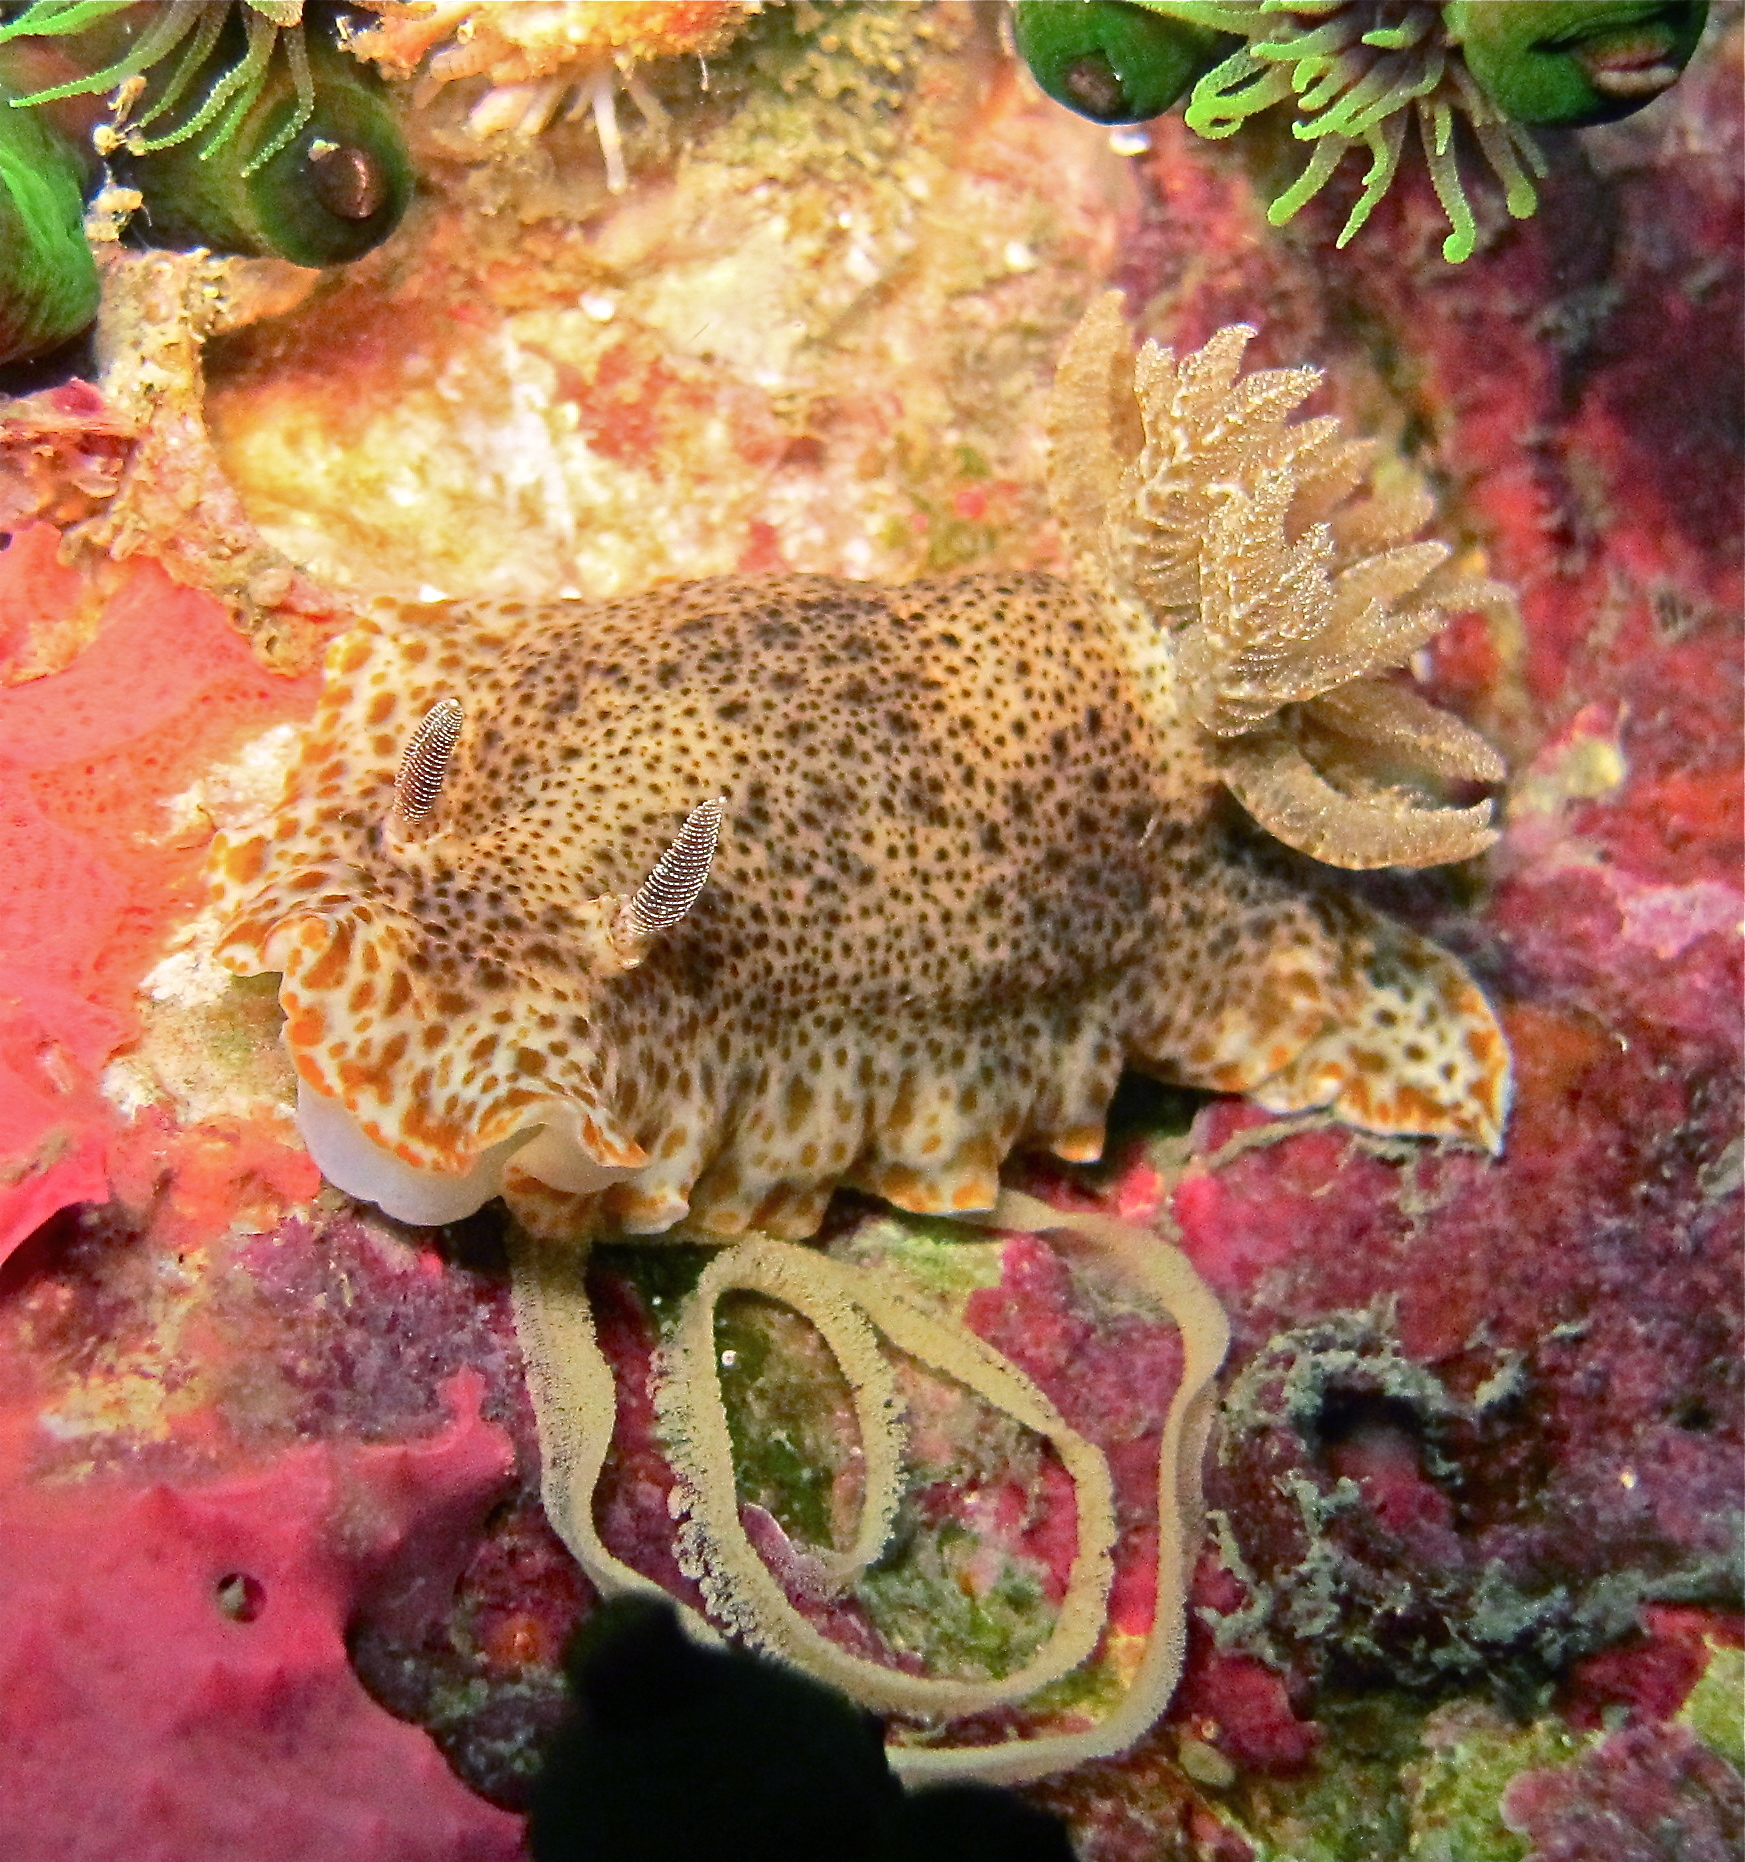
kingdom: Animalia
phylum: Mollusca
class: Gastropoda
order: Nudibranchia
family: Chromodorididae
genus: Chromodoris
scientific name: Chromodoris mandapamensis
